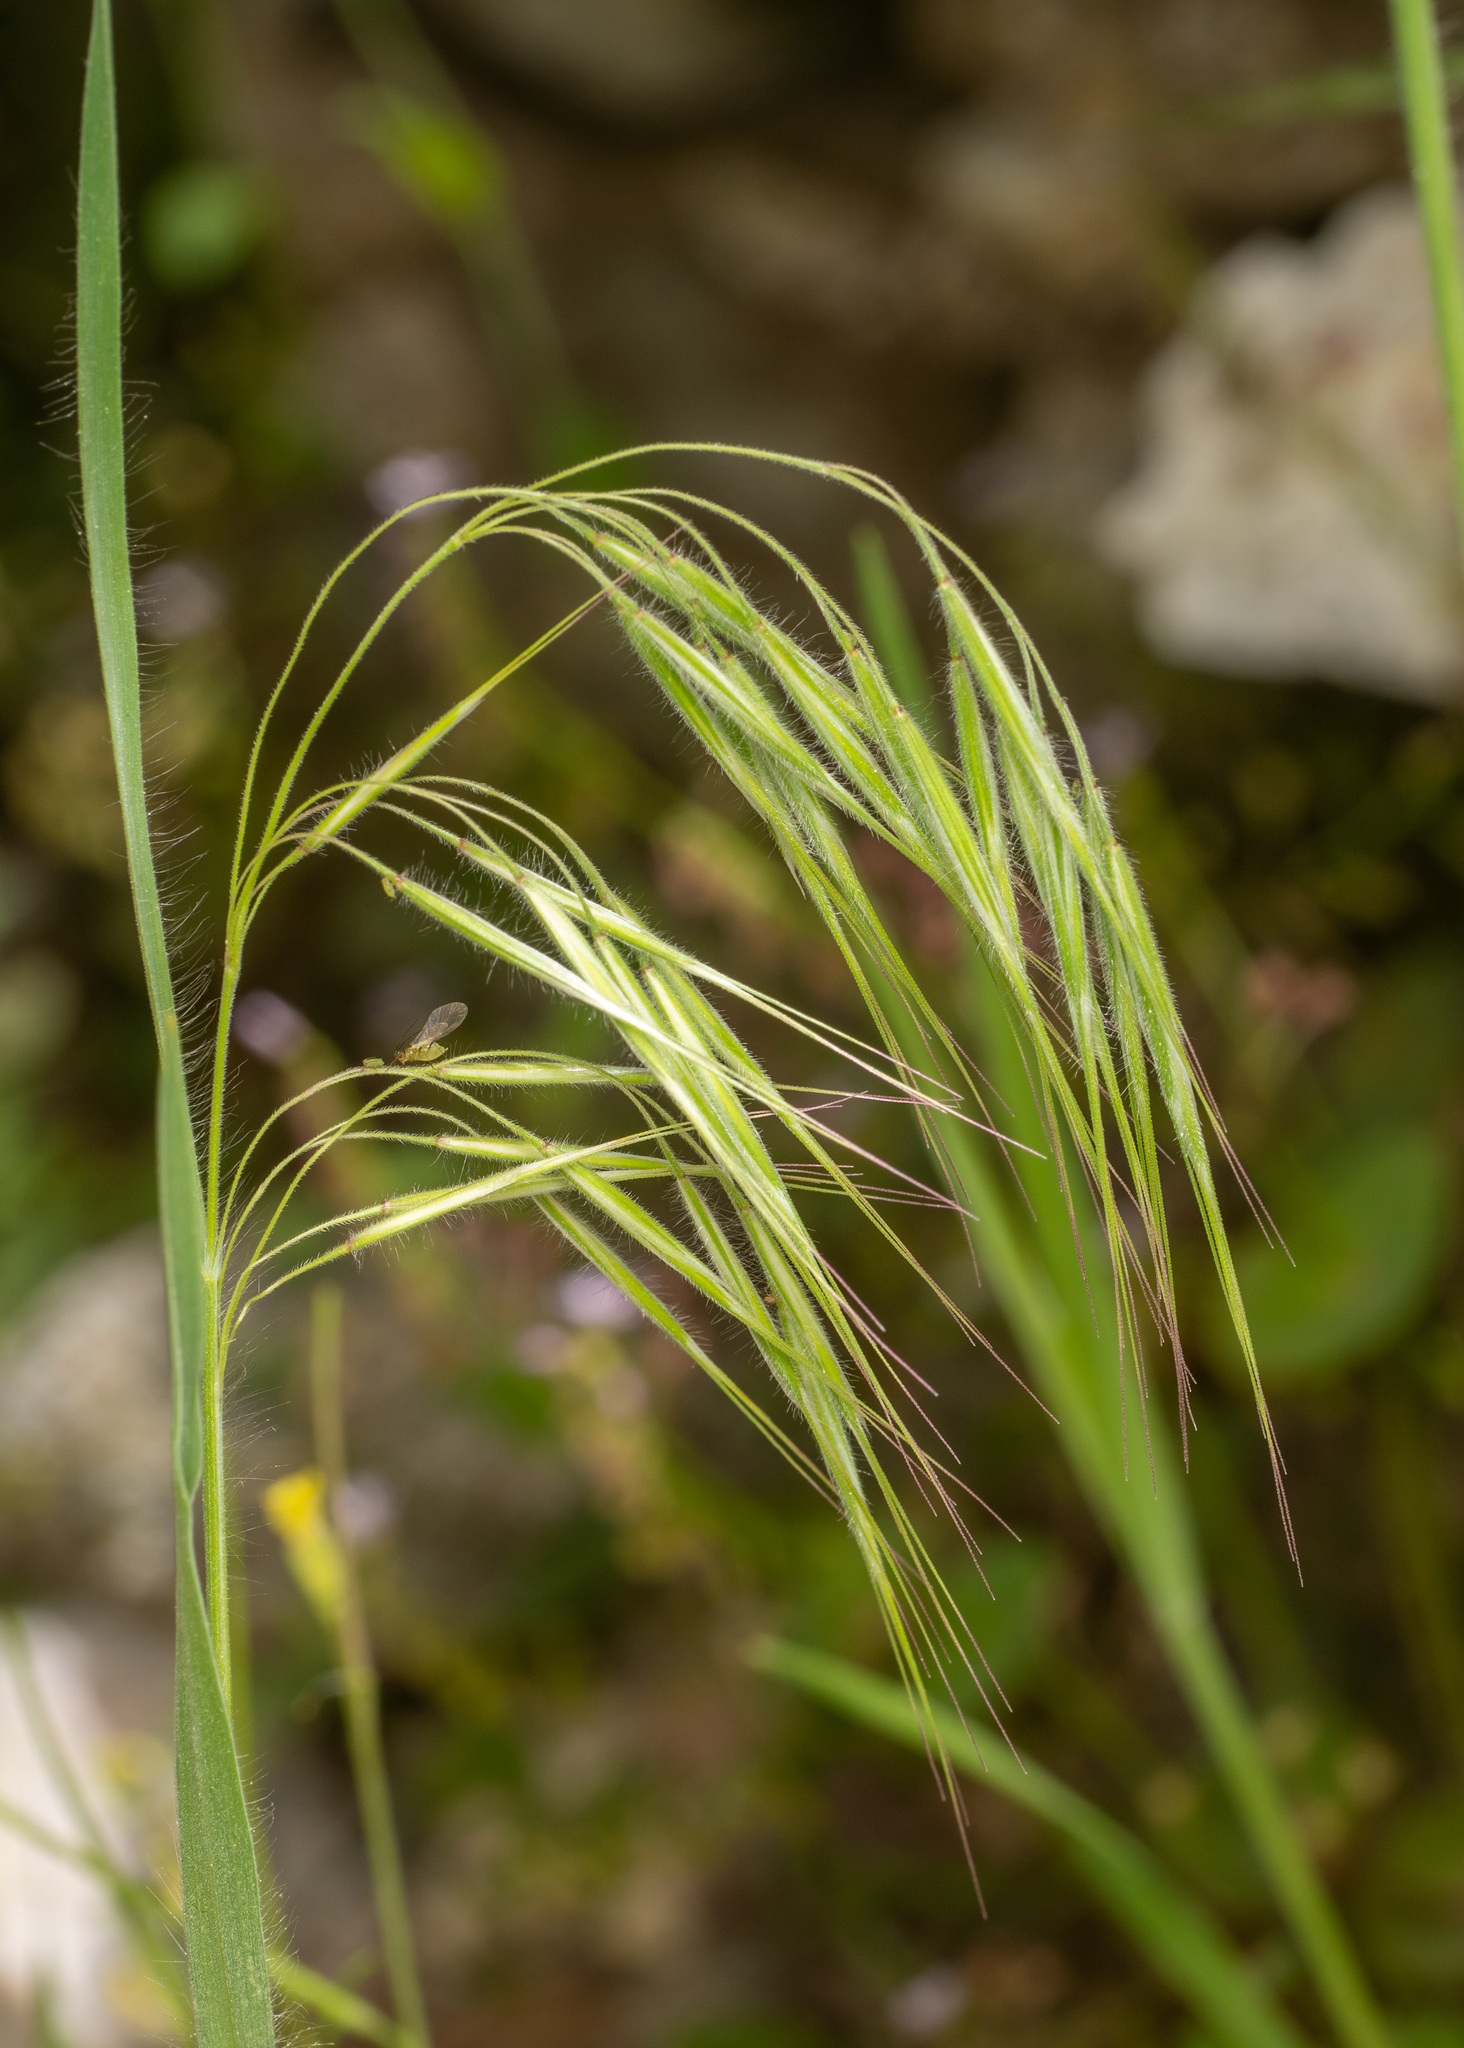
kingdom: Plantae
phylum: Tracheophyta
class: Liliopsida
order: Poales
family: Poaceae
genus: Bromus
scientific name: Bromus tectorum
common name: Cheatgrass
